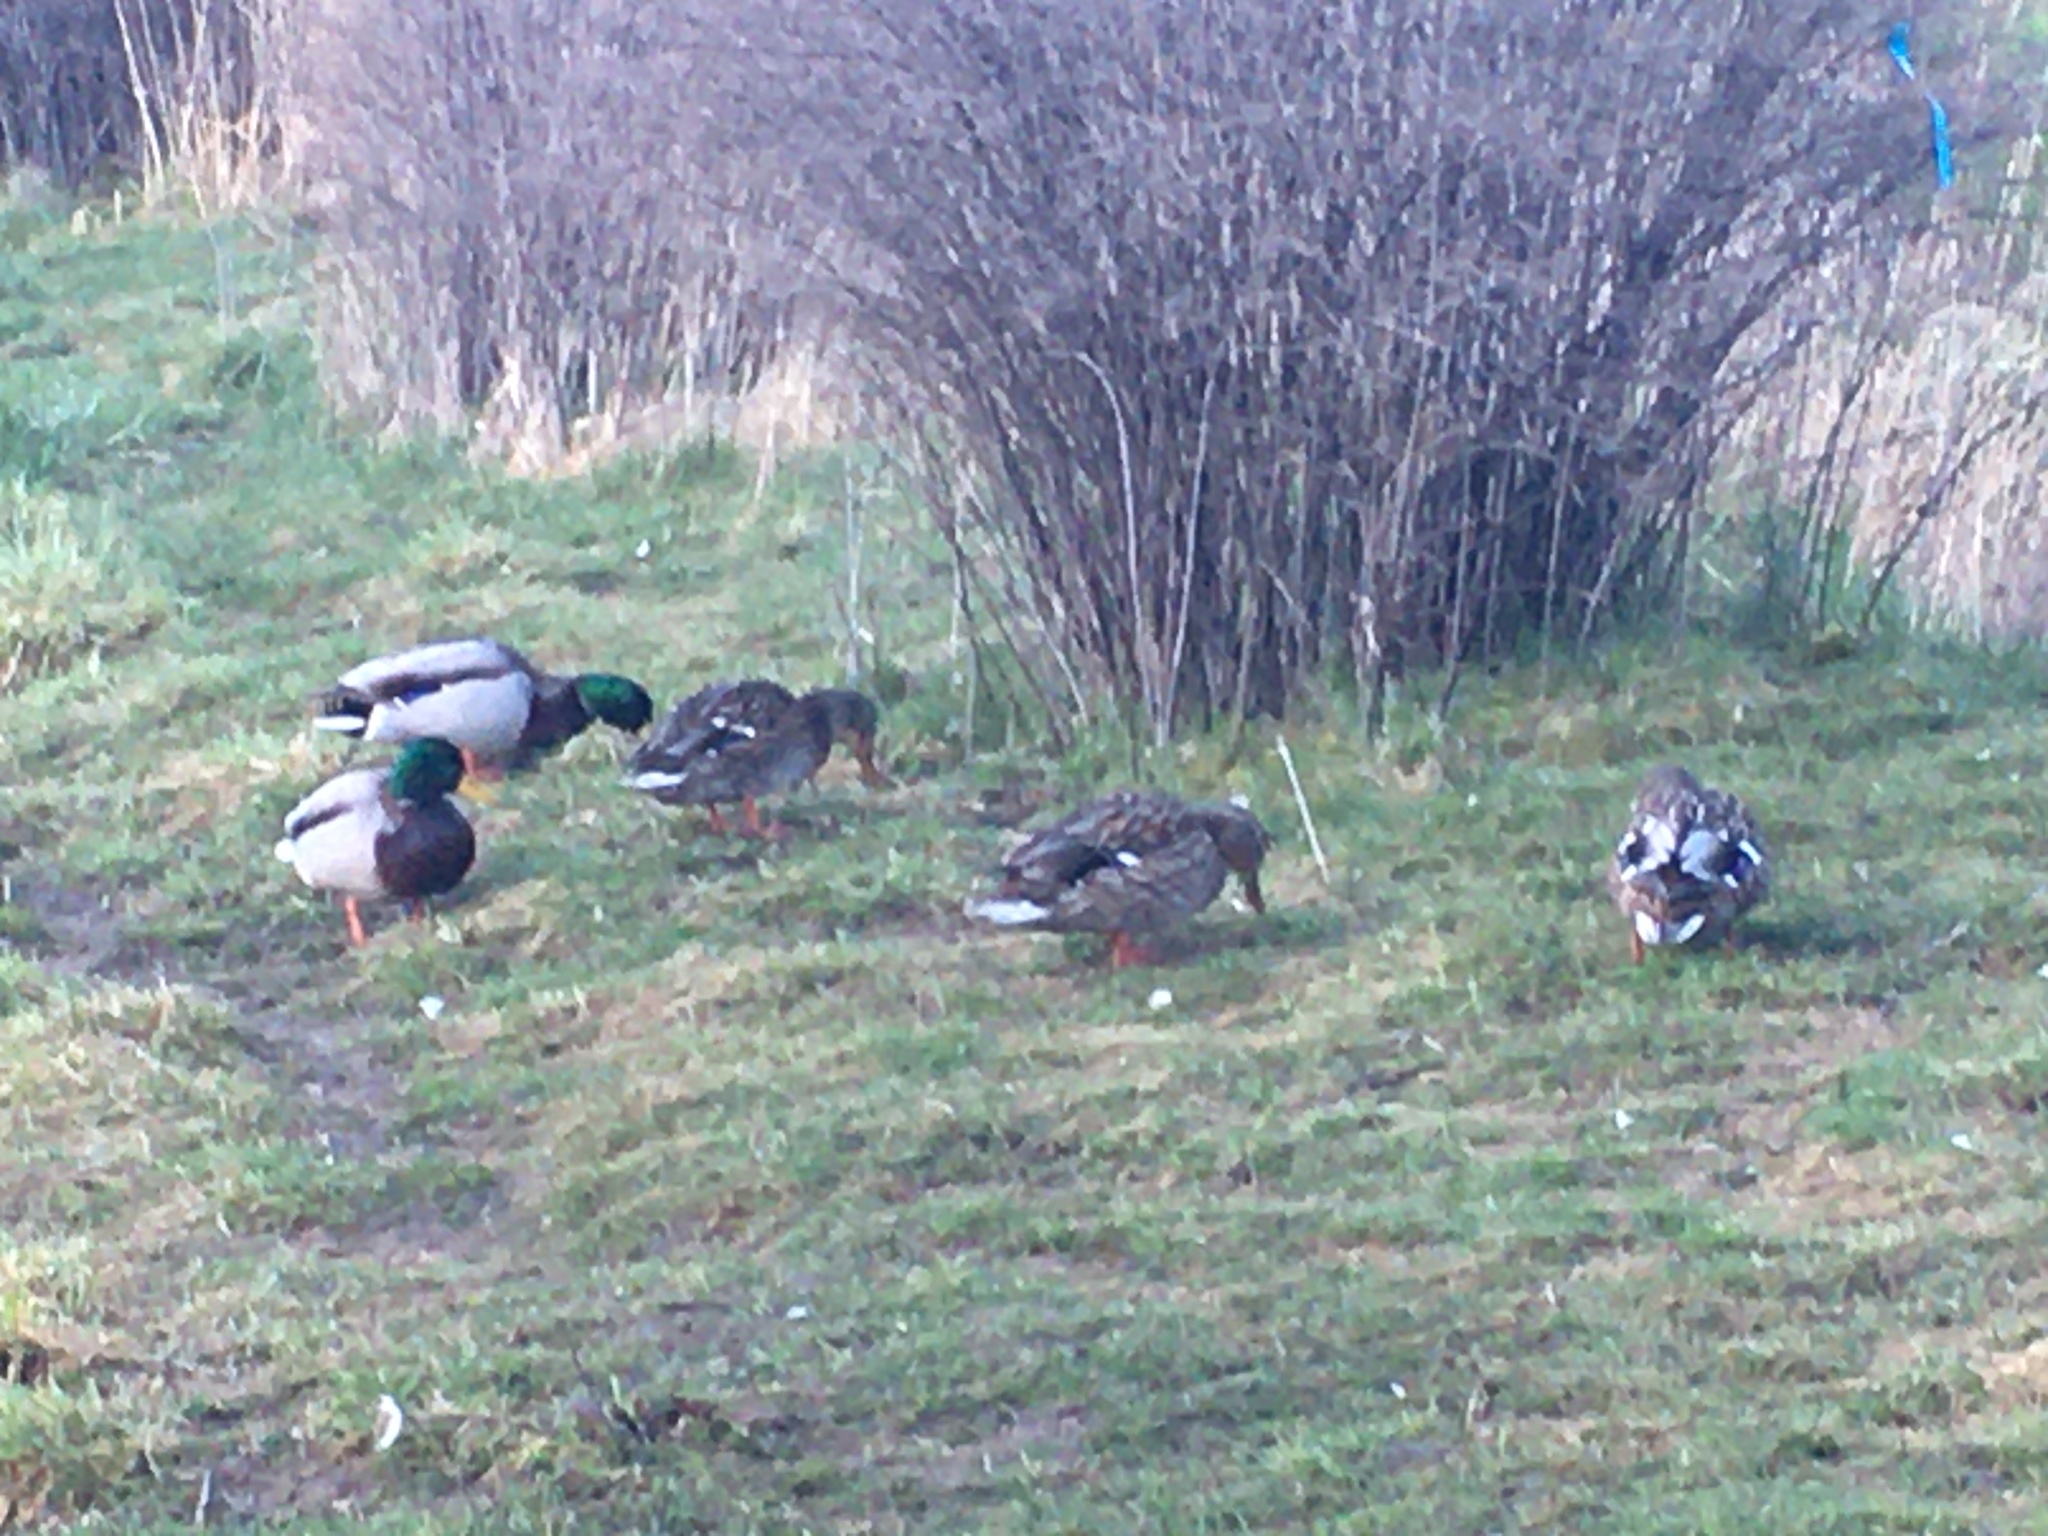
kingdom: Animalia
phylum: Chordata
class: Aves
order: Anseriformes
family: Anatidae
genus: Anas
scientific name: Anas platyrhynchos
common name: Mallard
